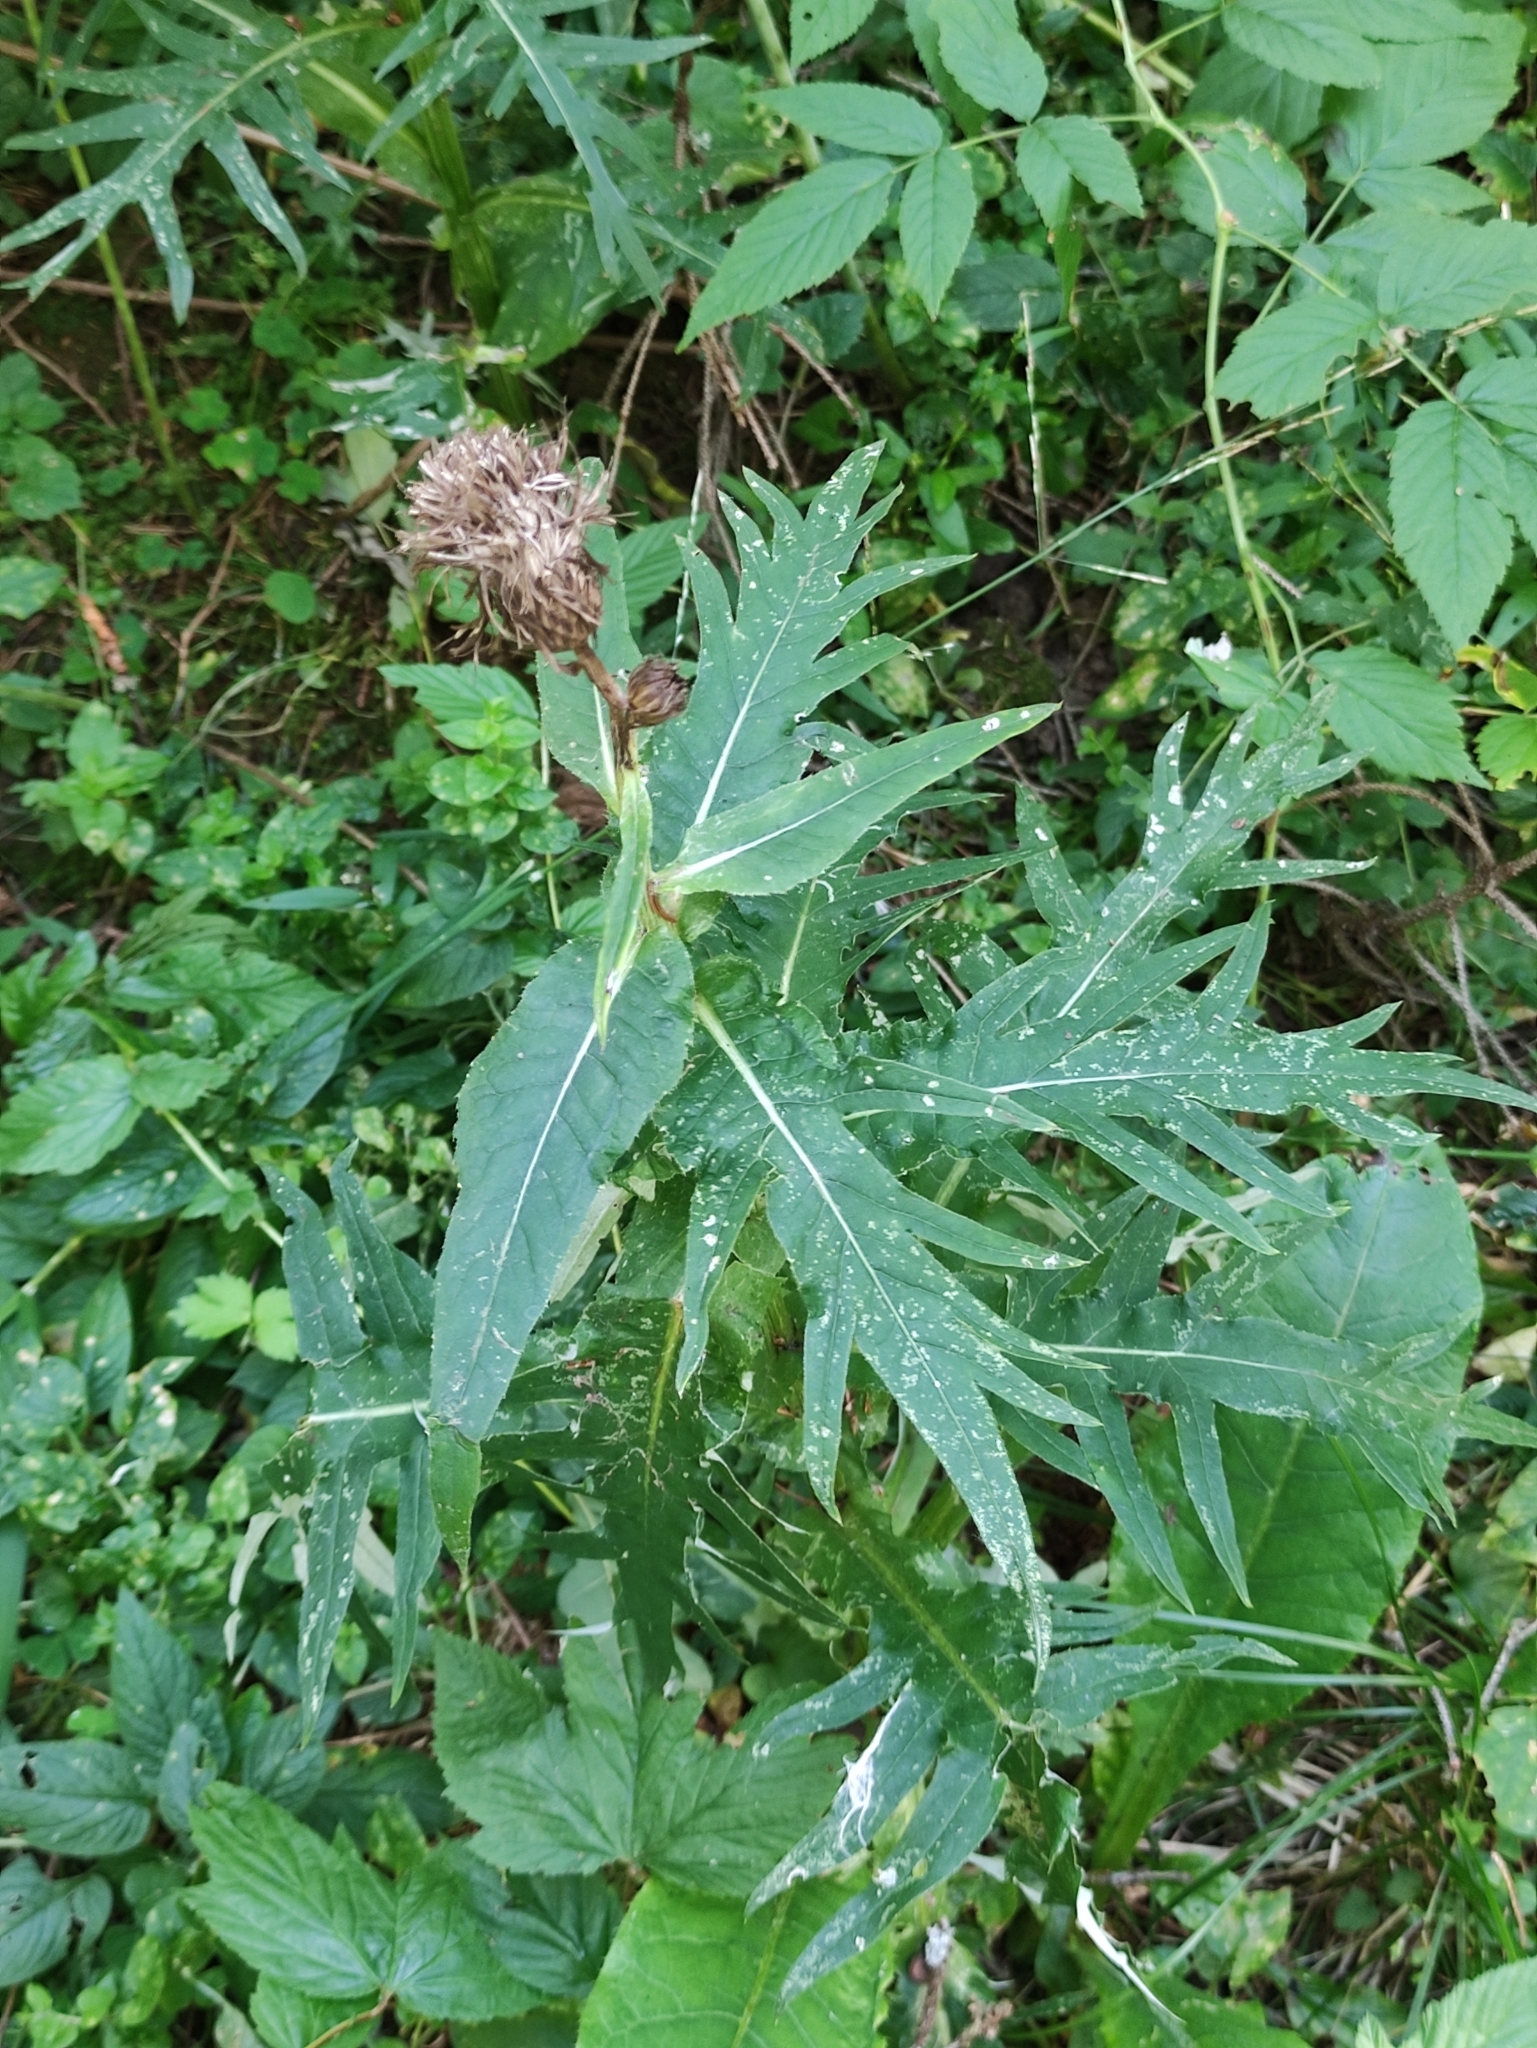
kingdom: Plantae
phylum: Tracheophyta
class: Magnoliopsida
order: Asterales
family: Asteraceae
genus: Cirsium
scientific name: Cirsium heterophyllum
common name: Melancholy thistle
